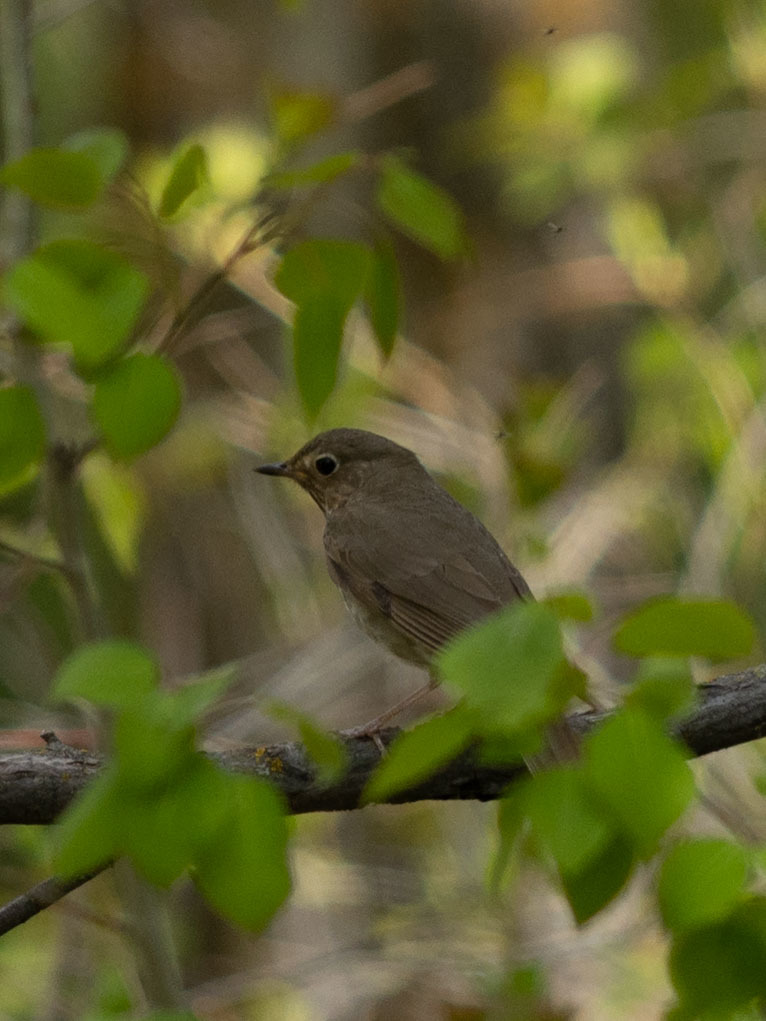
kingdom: Animalia
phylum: Chordata
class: Aves
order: Passeriformes
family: Turdidae
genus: Catharus
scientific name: Catharus ustulatus
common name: Swainson's thrush
